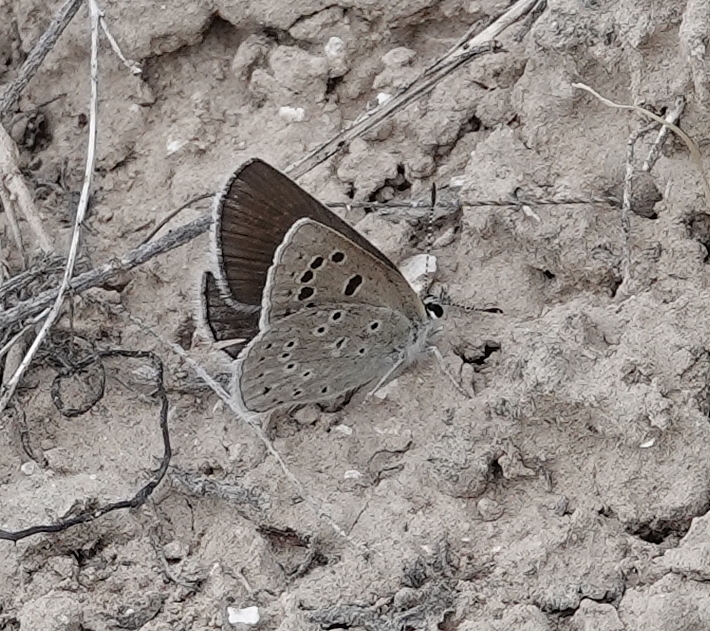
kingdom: Animalia
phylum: Arthropoda
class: Insecta
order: Lepidoptera
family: Lycaenidae
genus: Icaricia
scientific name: Icaricia icarioides
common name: Boisduval's blue
